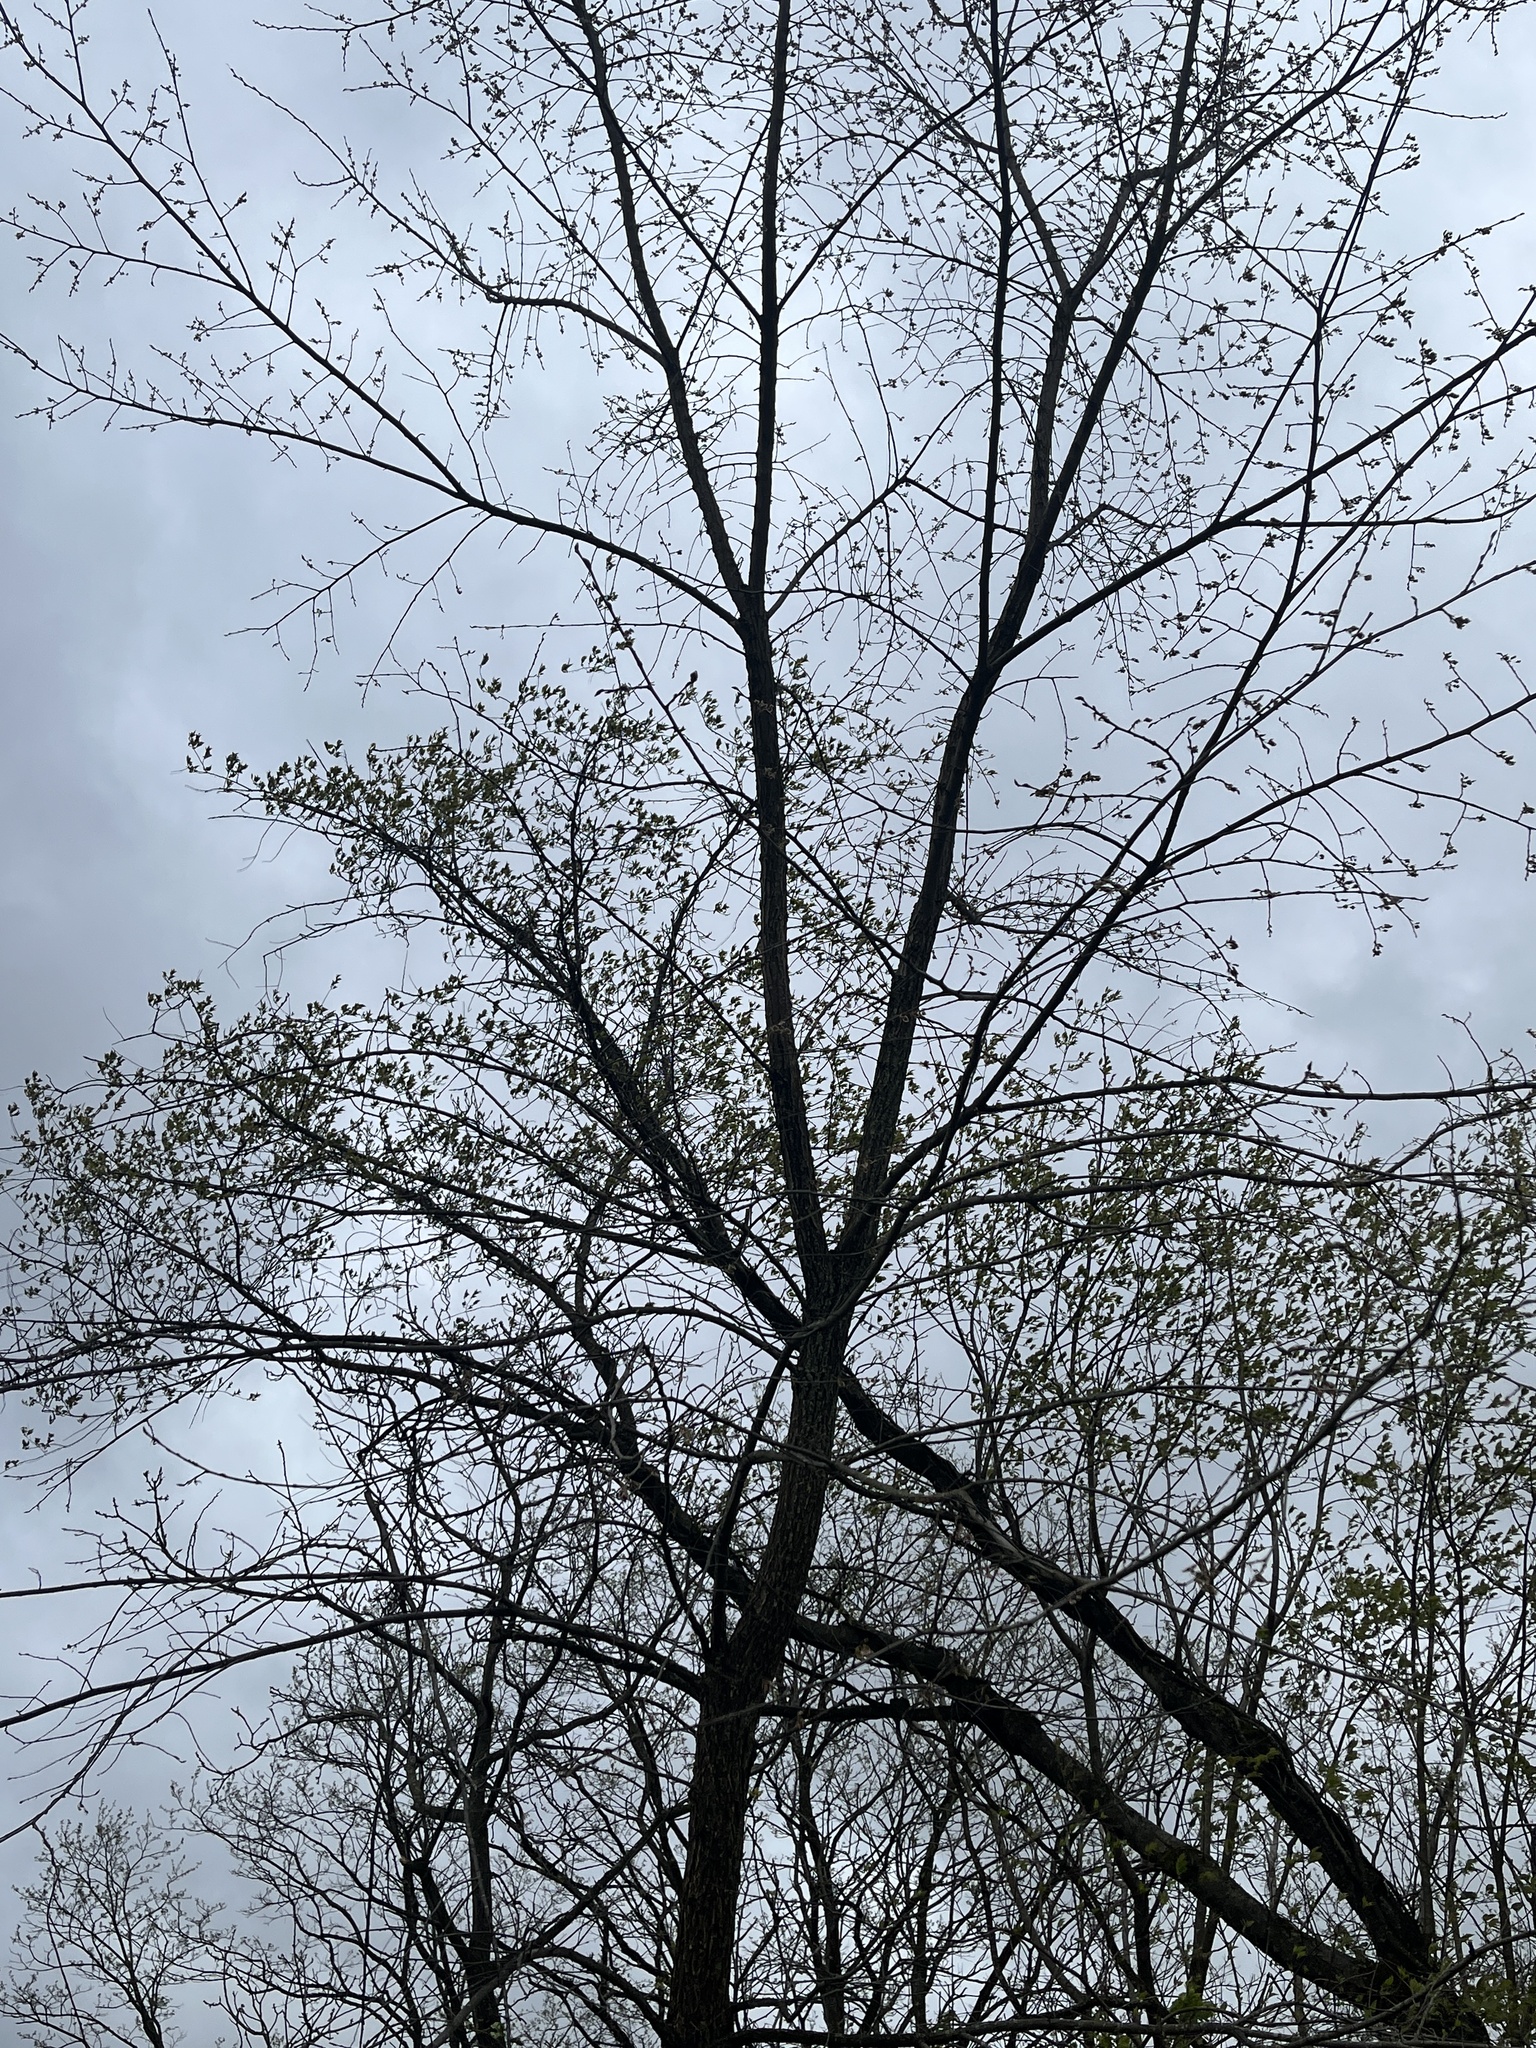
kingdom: Plantae
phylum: Tracheophyta
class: Magnoliopsida
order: Rosales
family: Ulmaceae
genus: Ulmus
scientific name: Ulmus americana
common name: American elm
